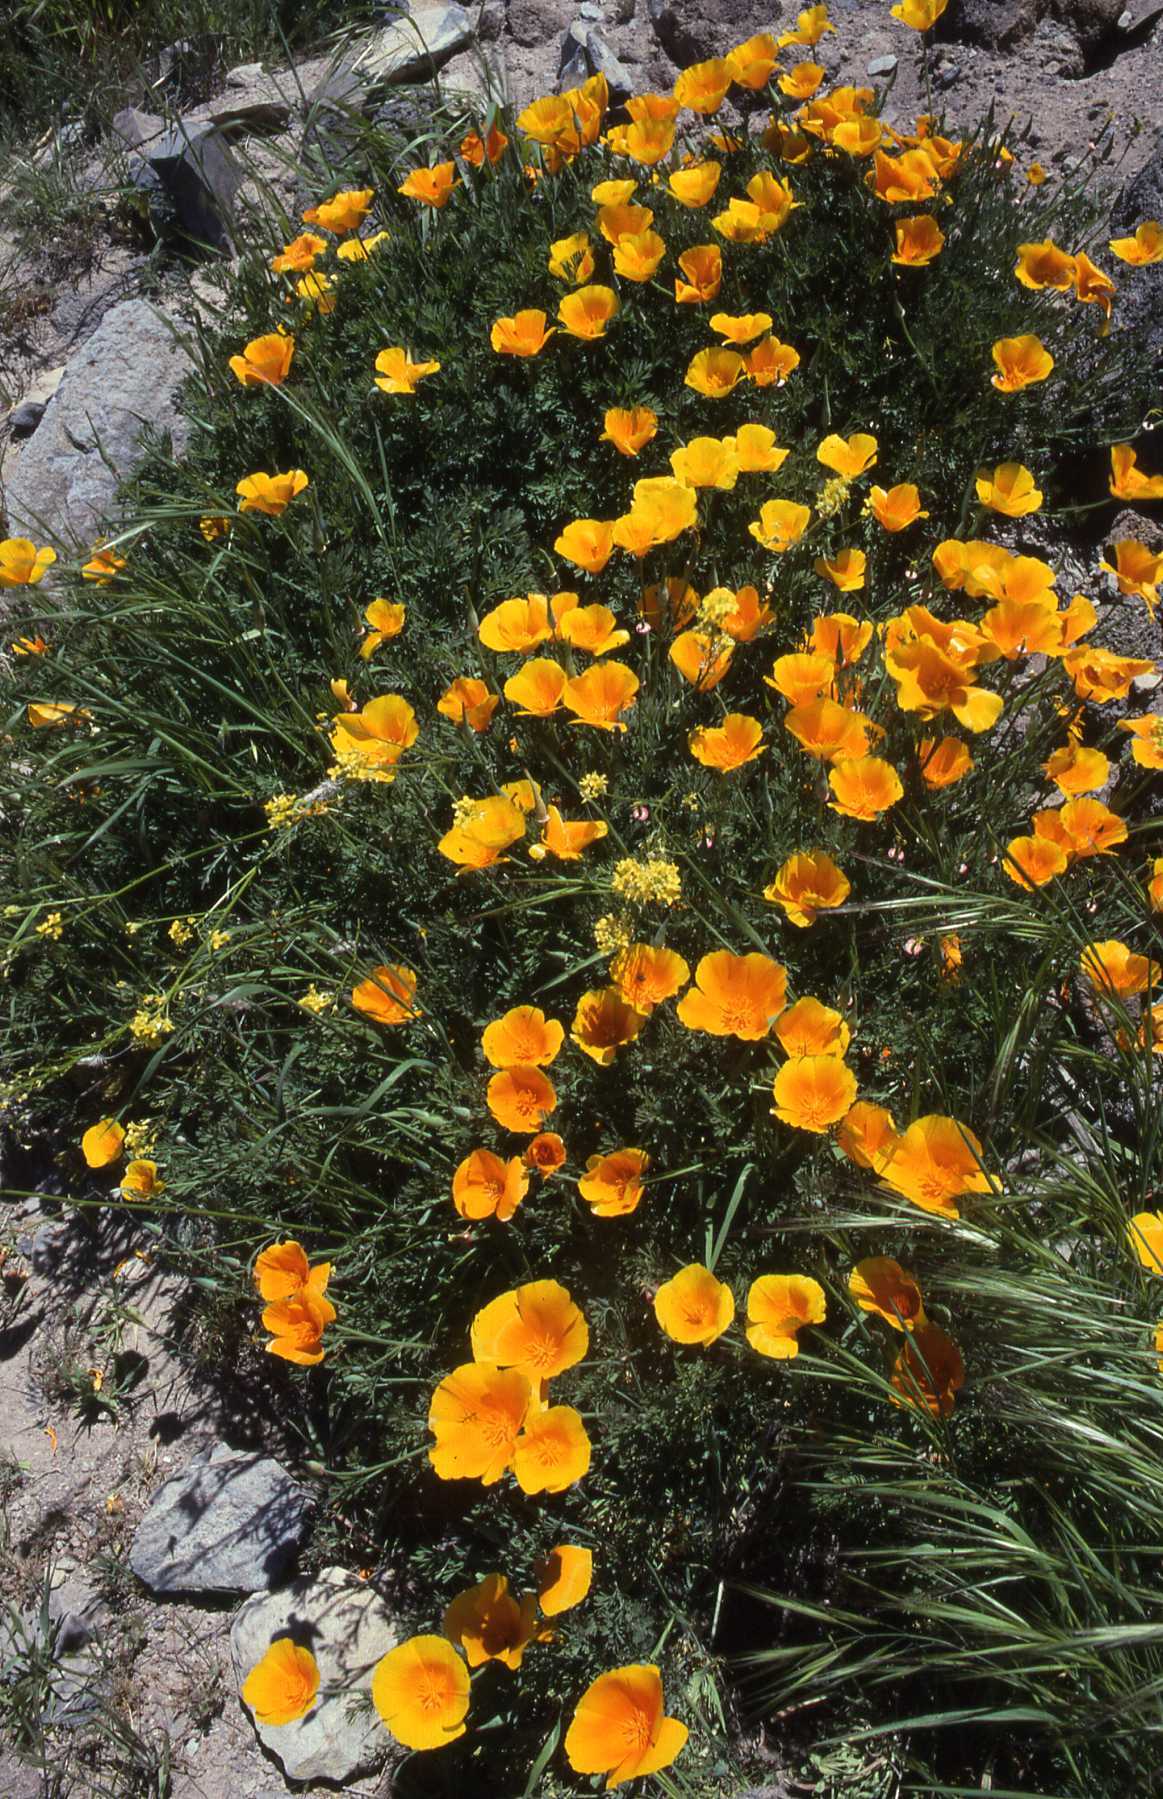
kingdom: Plantae
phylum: Tracheophyta
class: Magnoliopsida
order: Ranunculales
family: Papaveraceae
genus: Eschscholzia
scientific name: Eschscholzia californica
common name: California poppy
